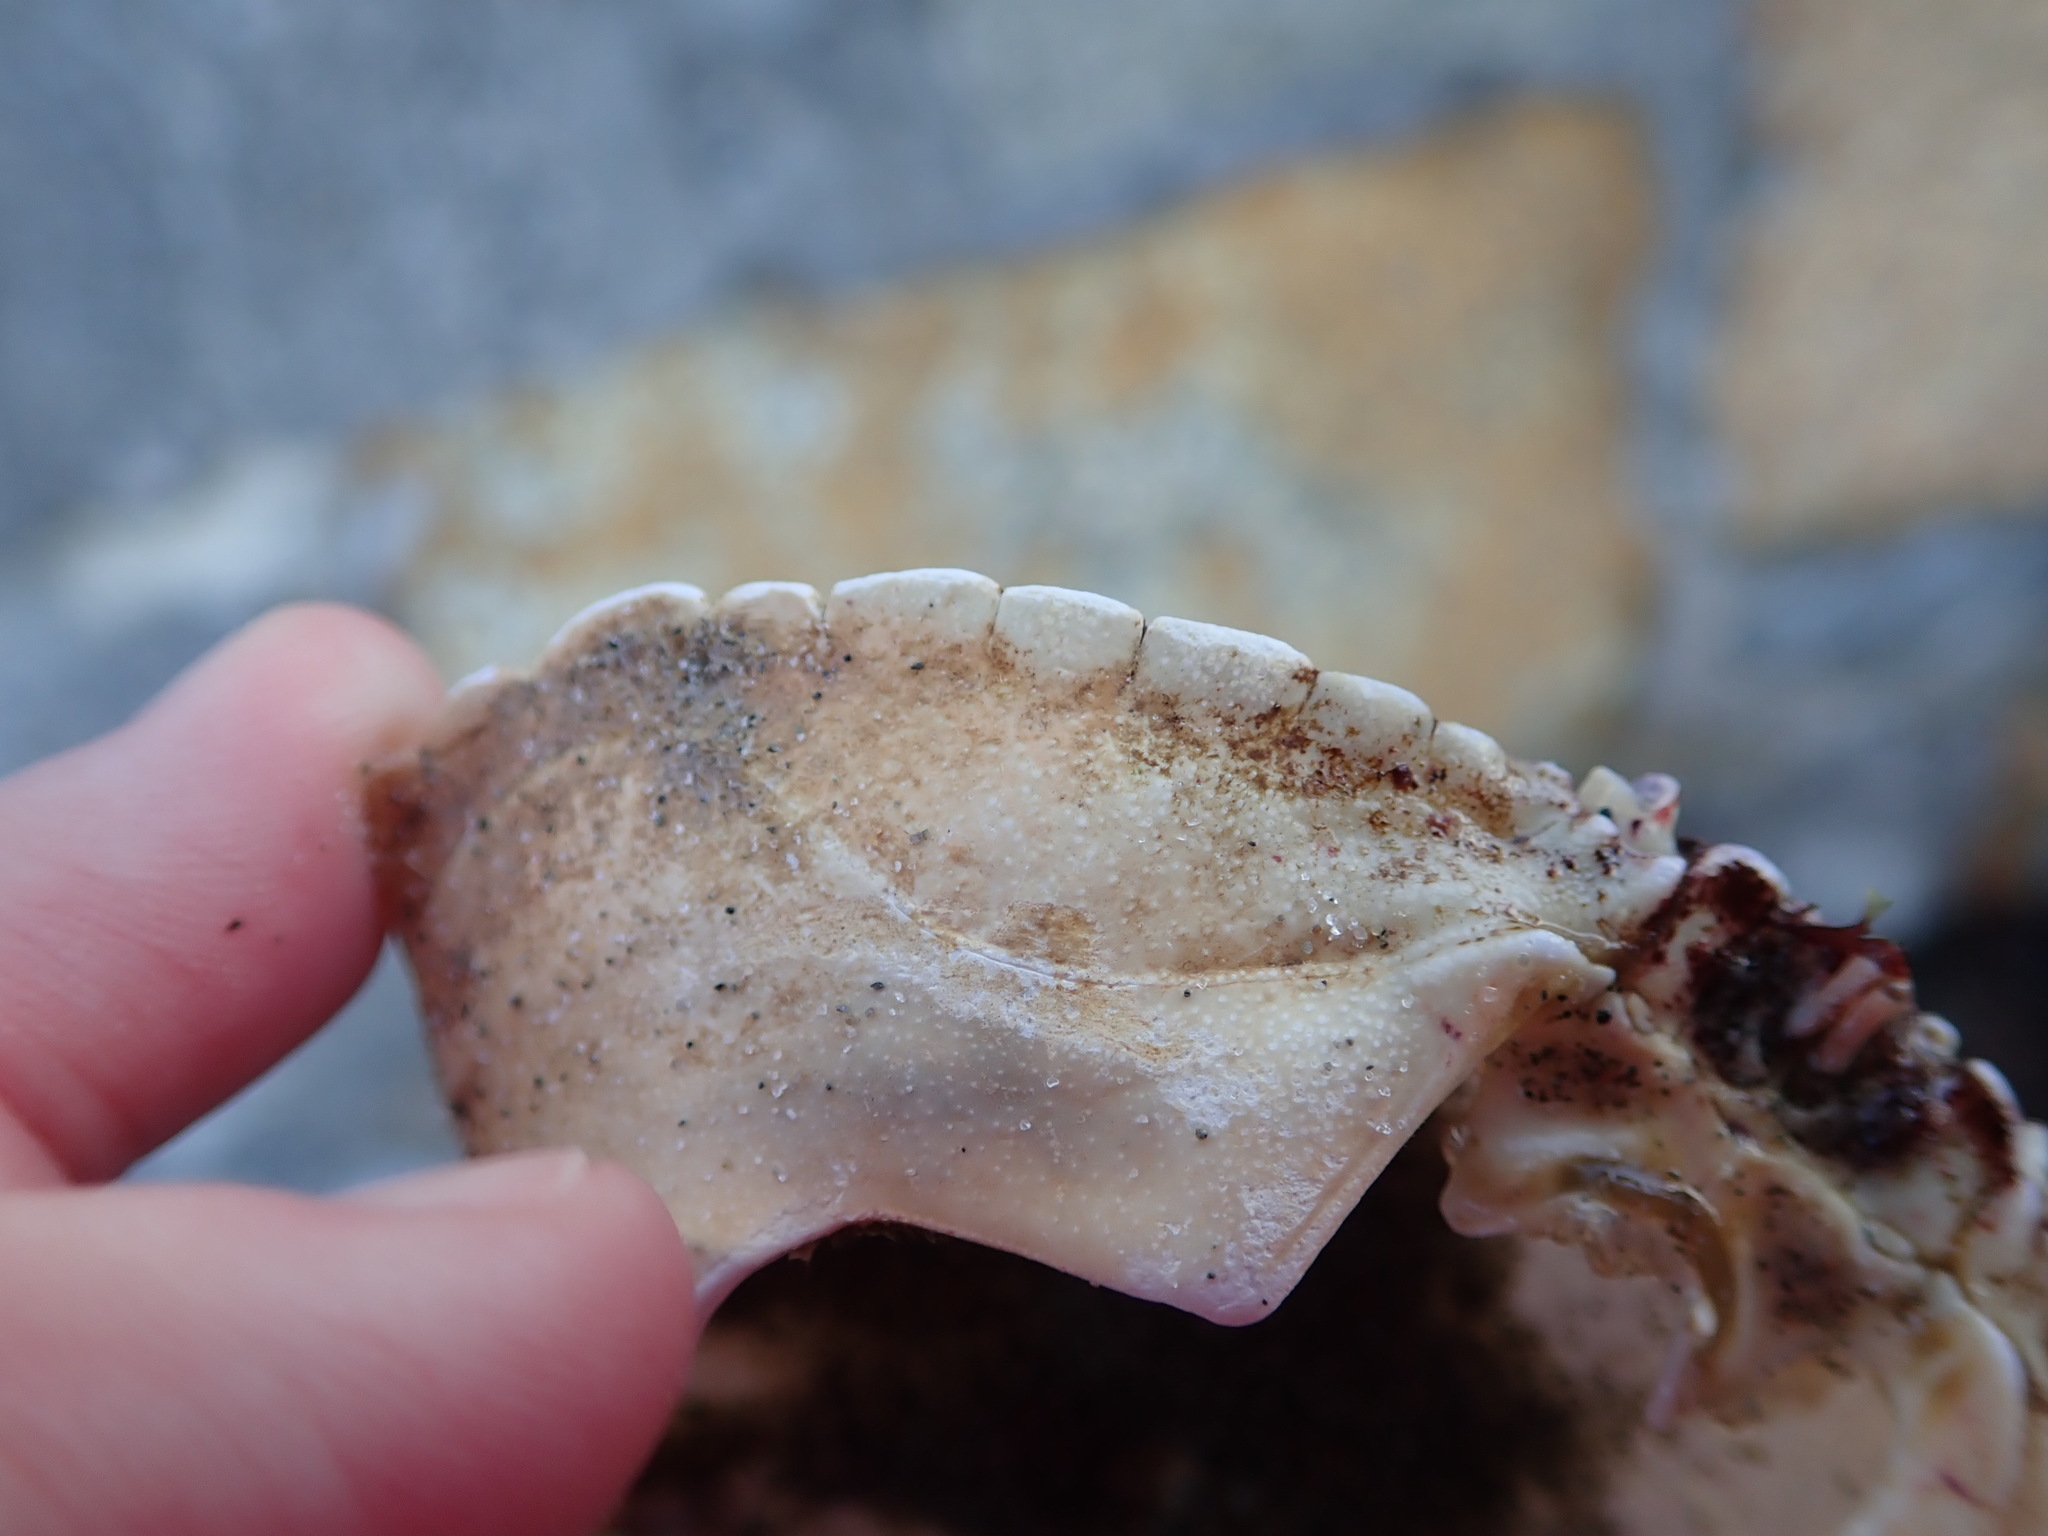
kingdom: Animalia
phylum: Arthropoda
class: Malacostraca
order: Decapoda
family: Cancridae
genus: Cancer
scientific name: Cancer irroratus
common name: Atlantic rock crab
